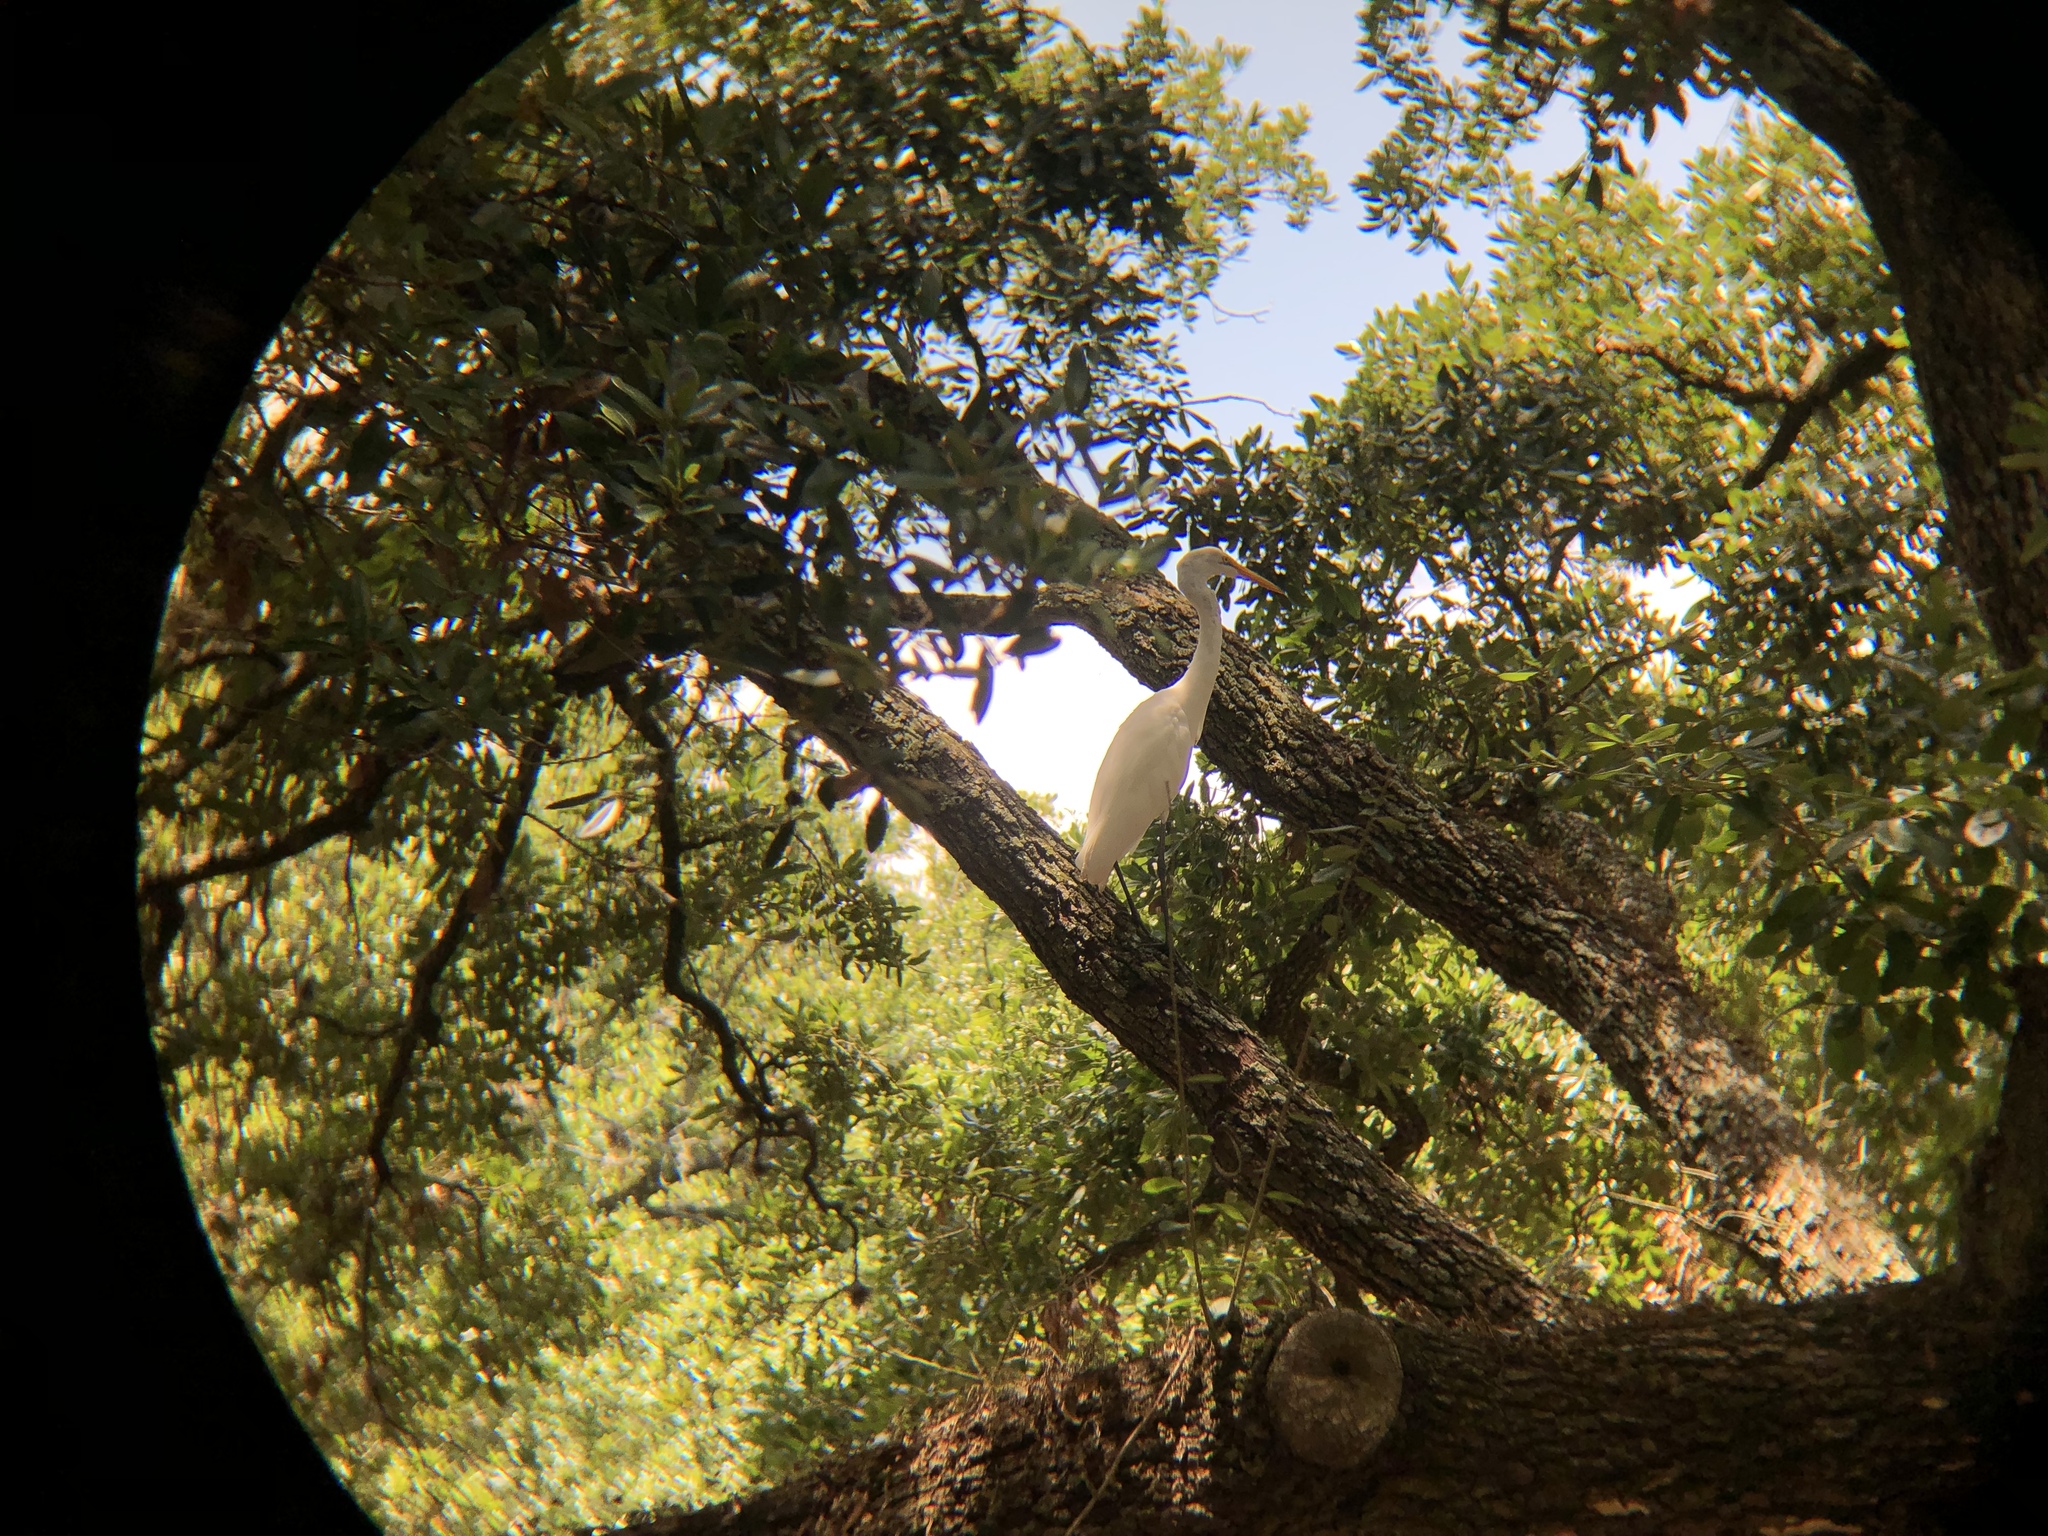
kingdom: Animalia
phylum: Chordata
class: Aves
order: Pelecaniformes
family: Ardeidae
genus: Ardea
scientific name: Ardea alba
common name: Great egret
